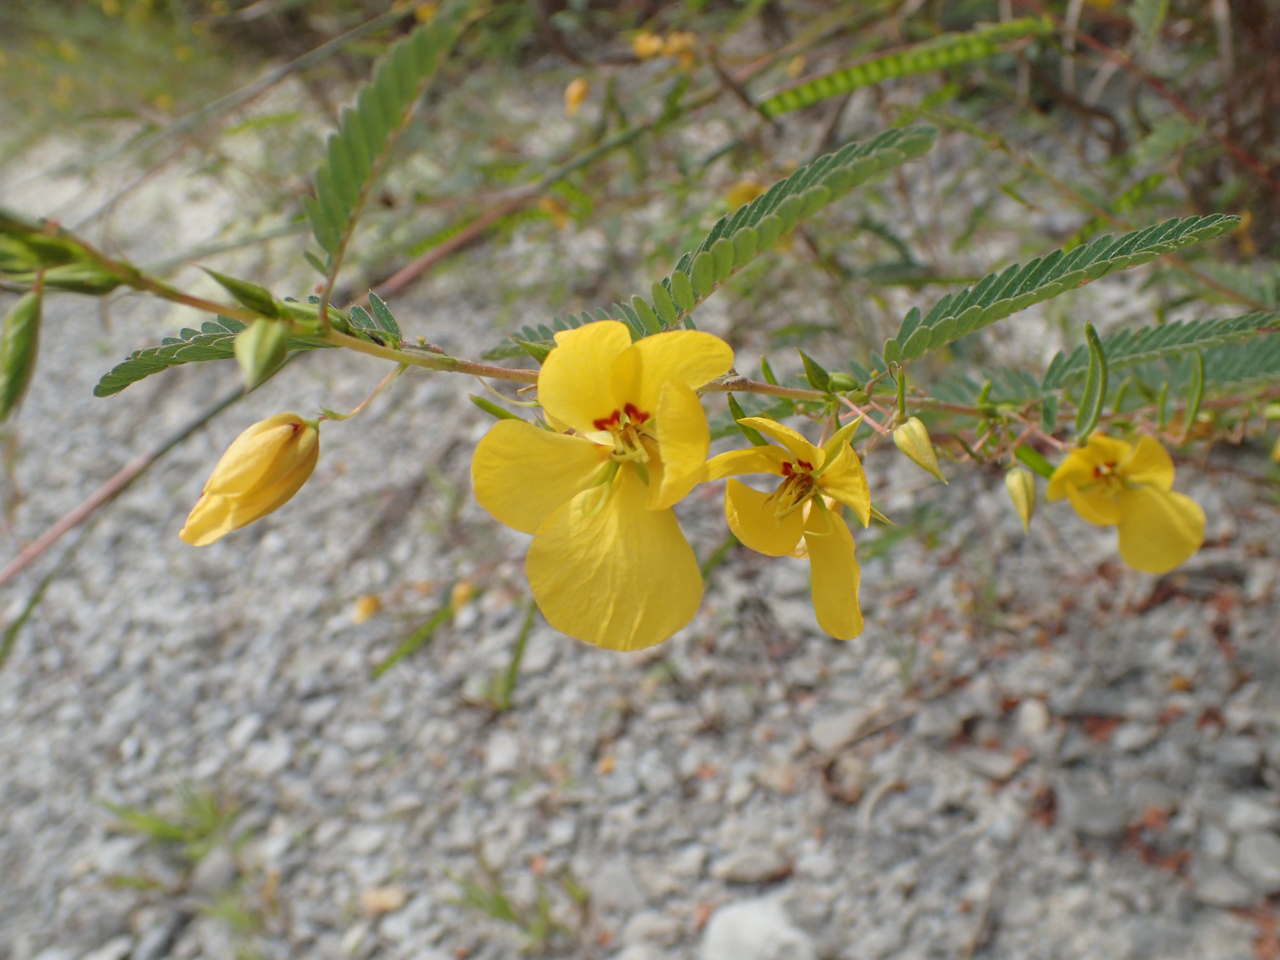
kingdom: Plantae
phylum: Tracheophyta
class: Magnoliopsida
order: Fabales
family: Fabaceae
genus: Chamaecrista
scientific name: Chamaecrista fasciculata
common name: Golden cassia
